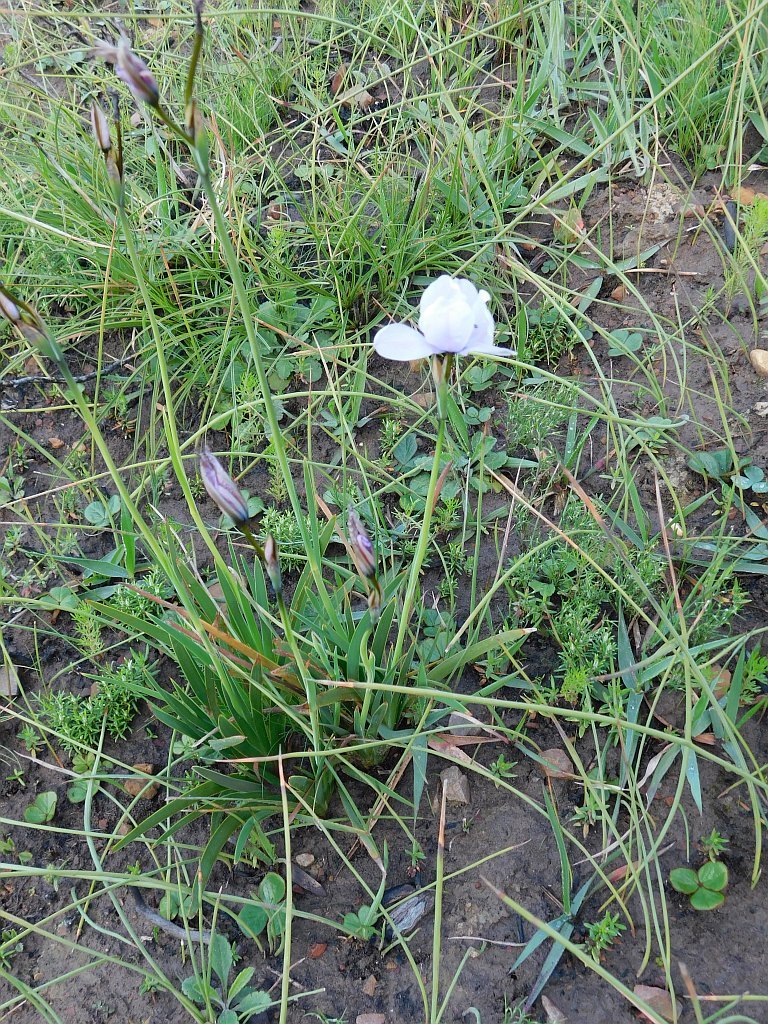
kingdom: Plantae
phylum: Tracheophyta
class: Liliopsida
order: Asparagales
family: Iridaceae
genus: Aristea
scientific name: Aristea cantharophila
